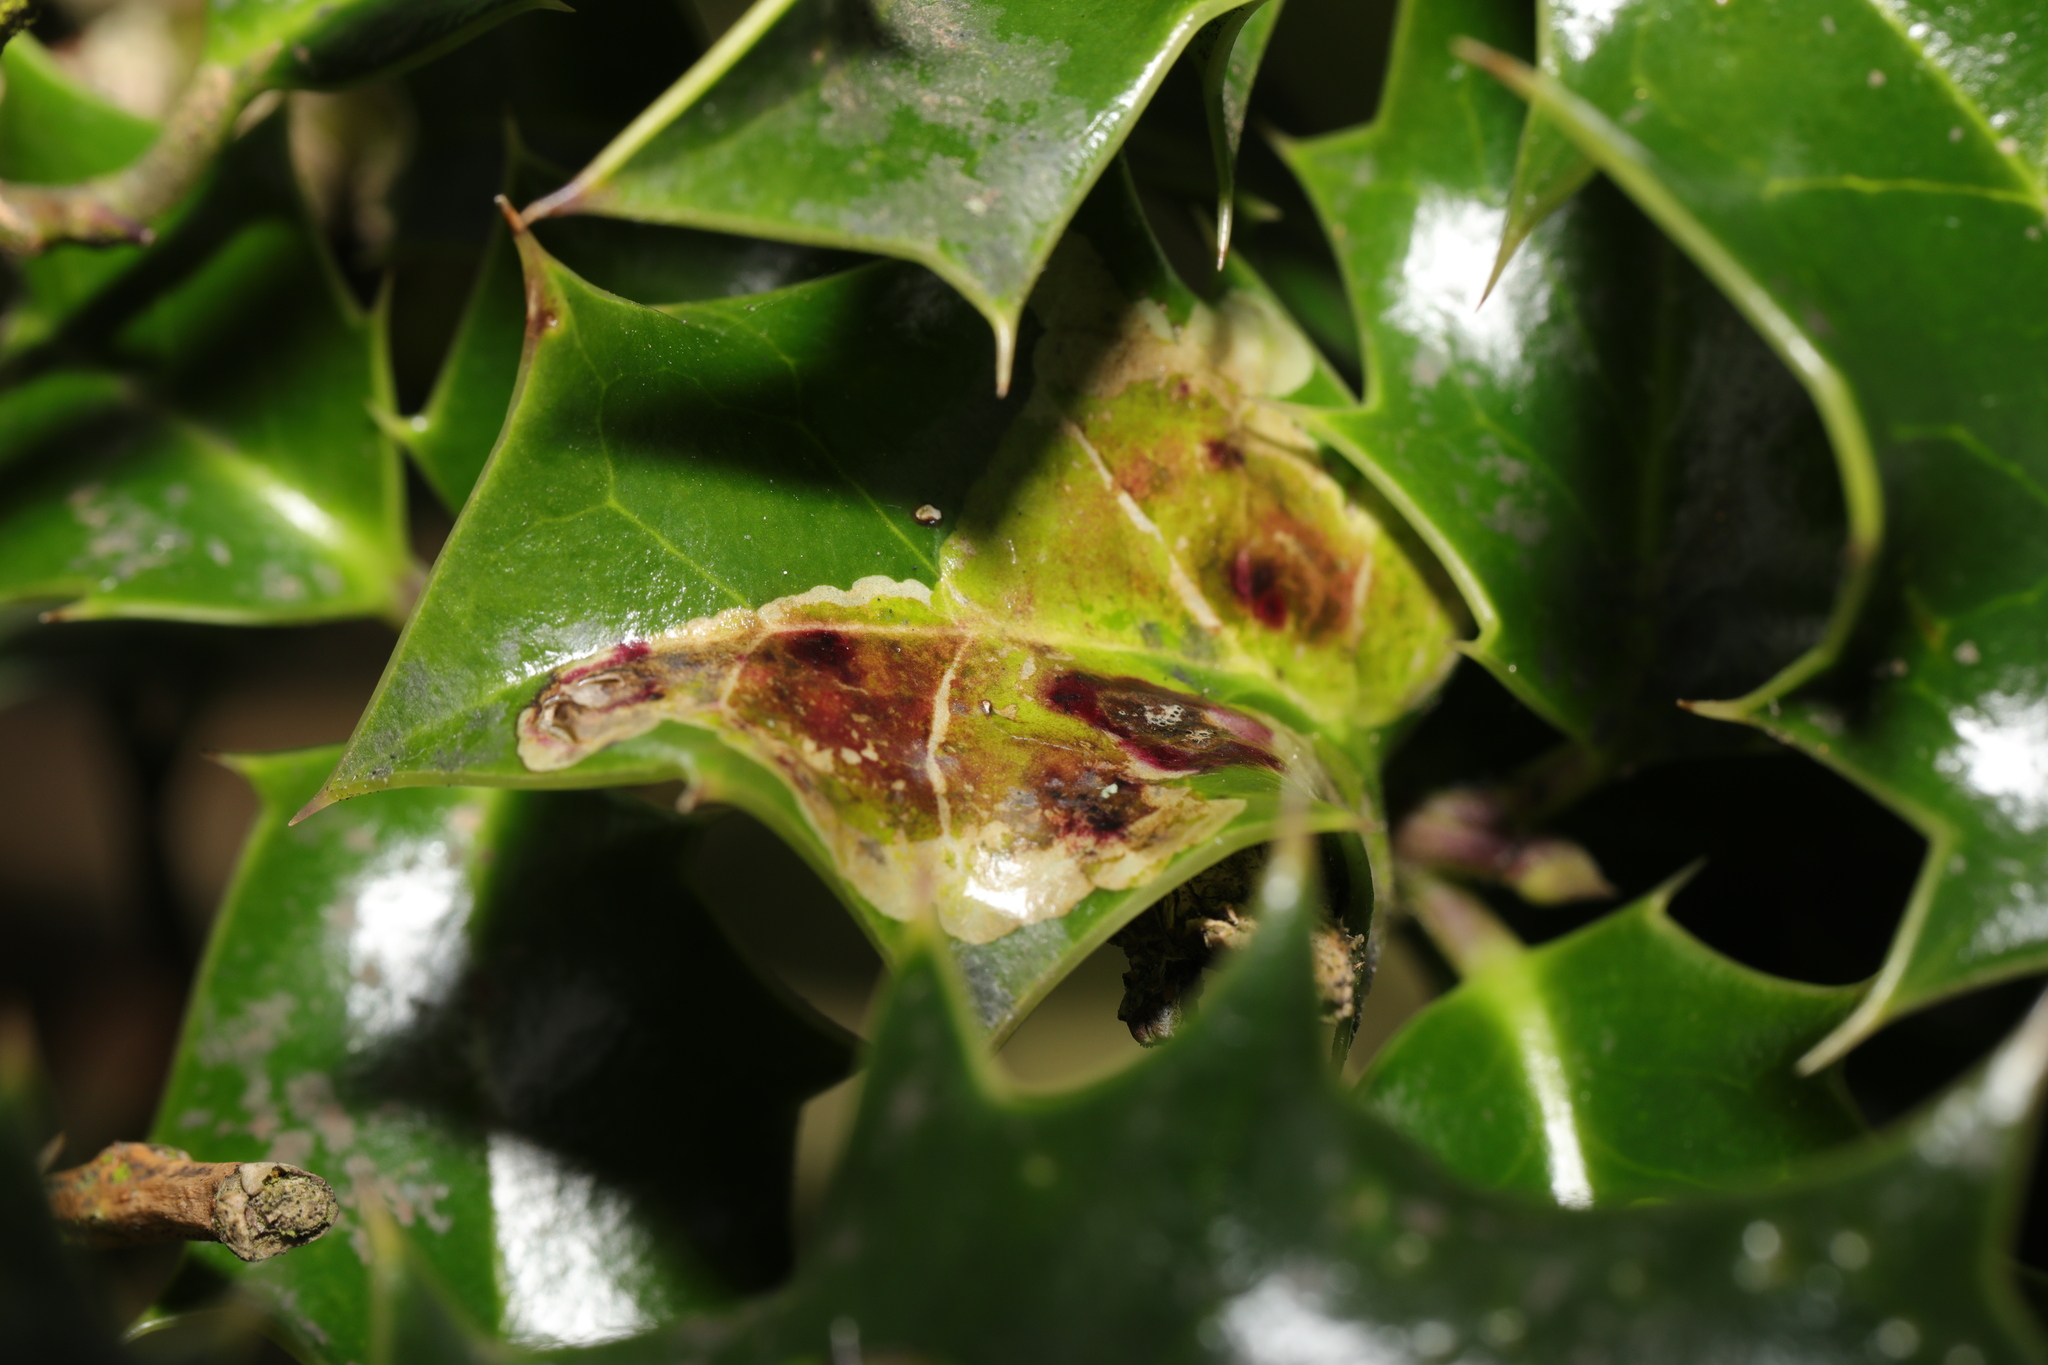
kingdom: Animalia
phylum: Arthropoda
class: Insecta
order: Diptera
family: Agromyzidae
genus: Phytomyza
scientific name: Phytomyza ilicis
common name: Holly leafminer
